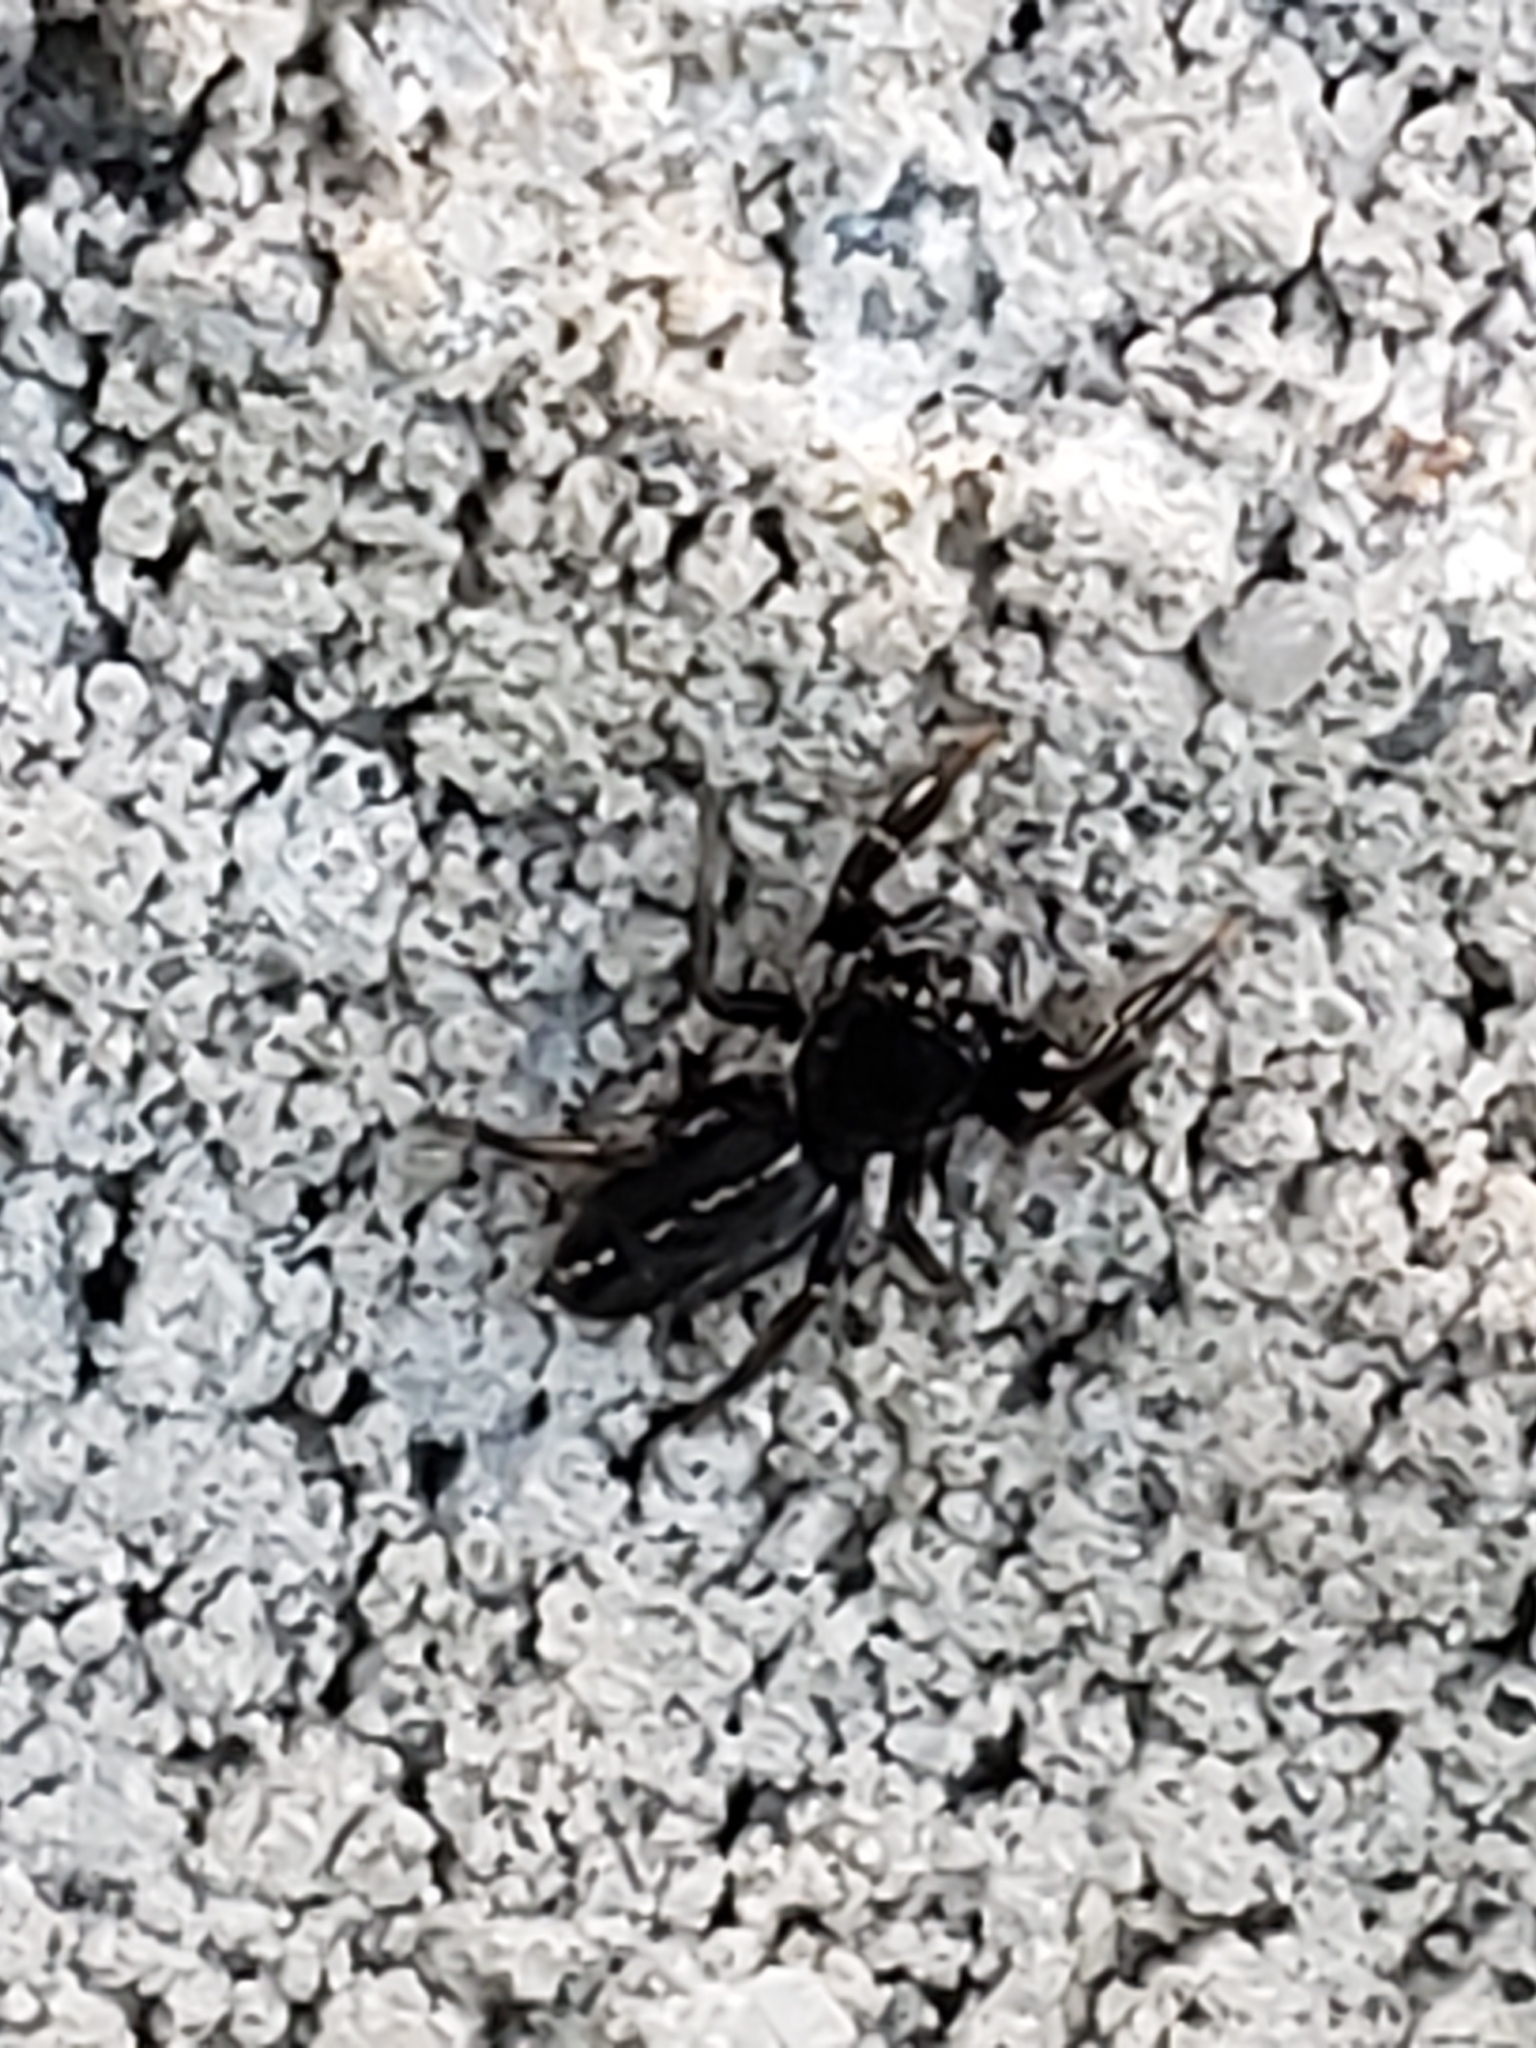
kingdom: Animalia
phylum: Arthropoda
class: Arachnida
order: Araneae
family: Salticidae
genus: Metacyrba
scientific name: Metacyrba taeniola
